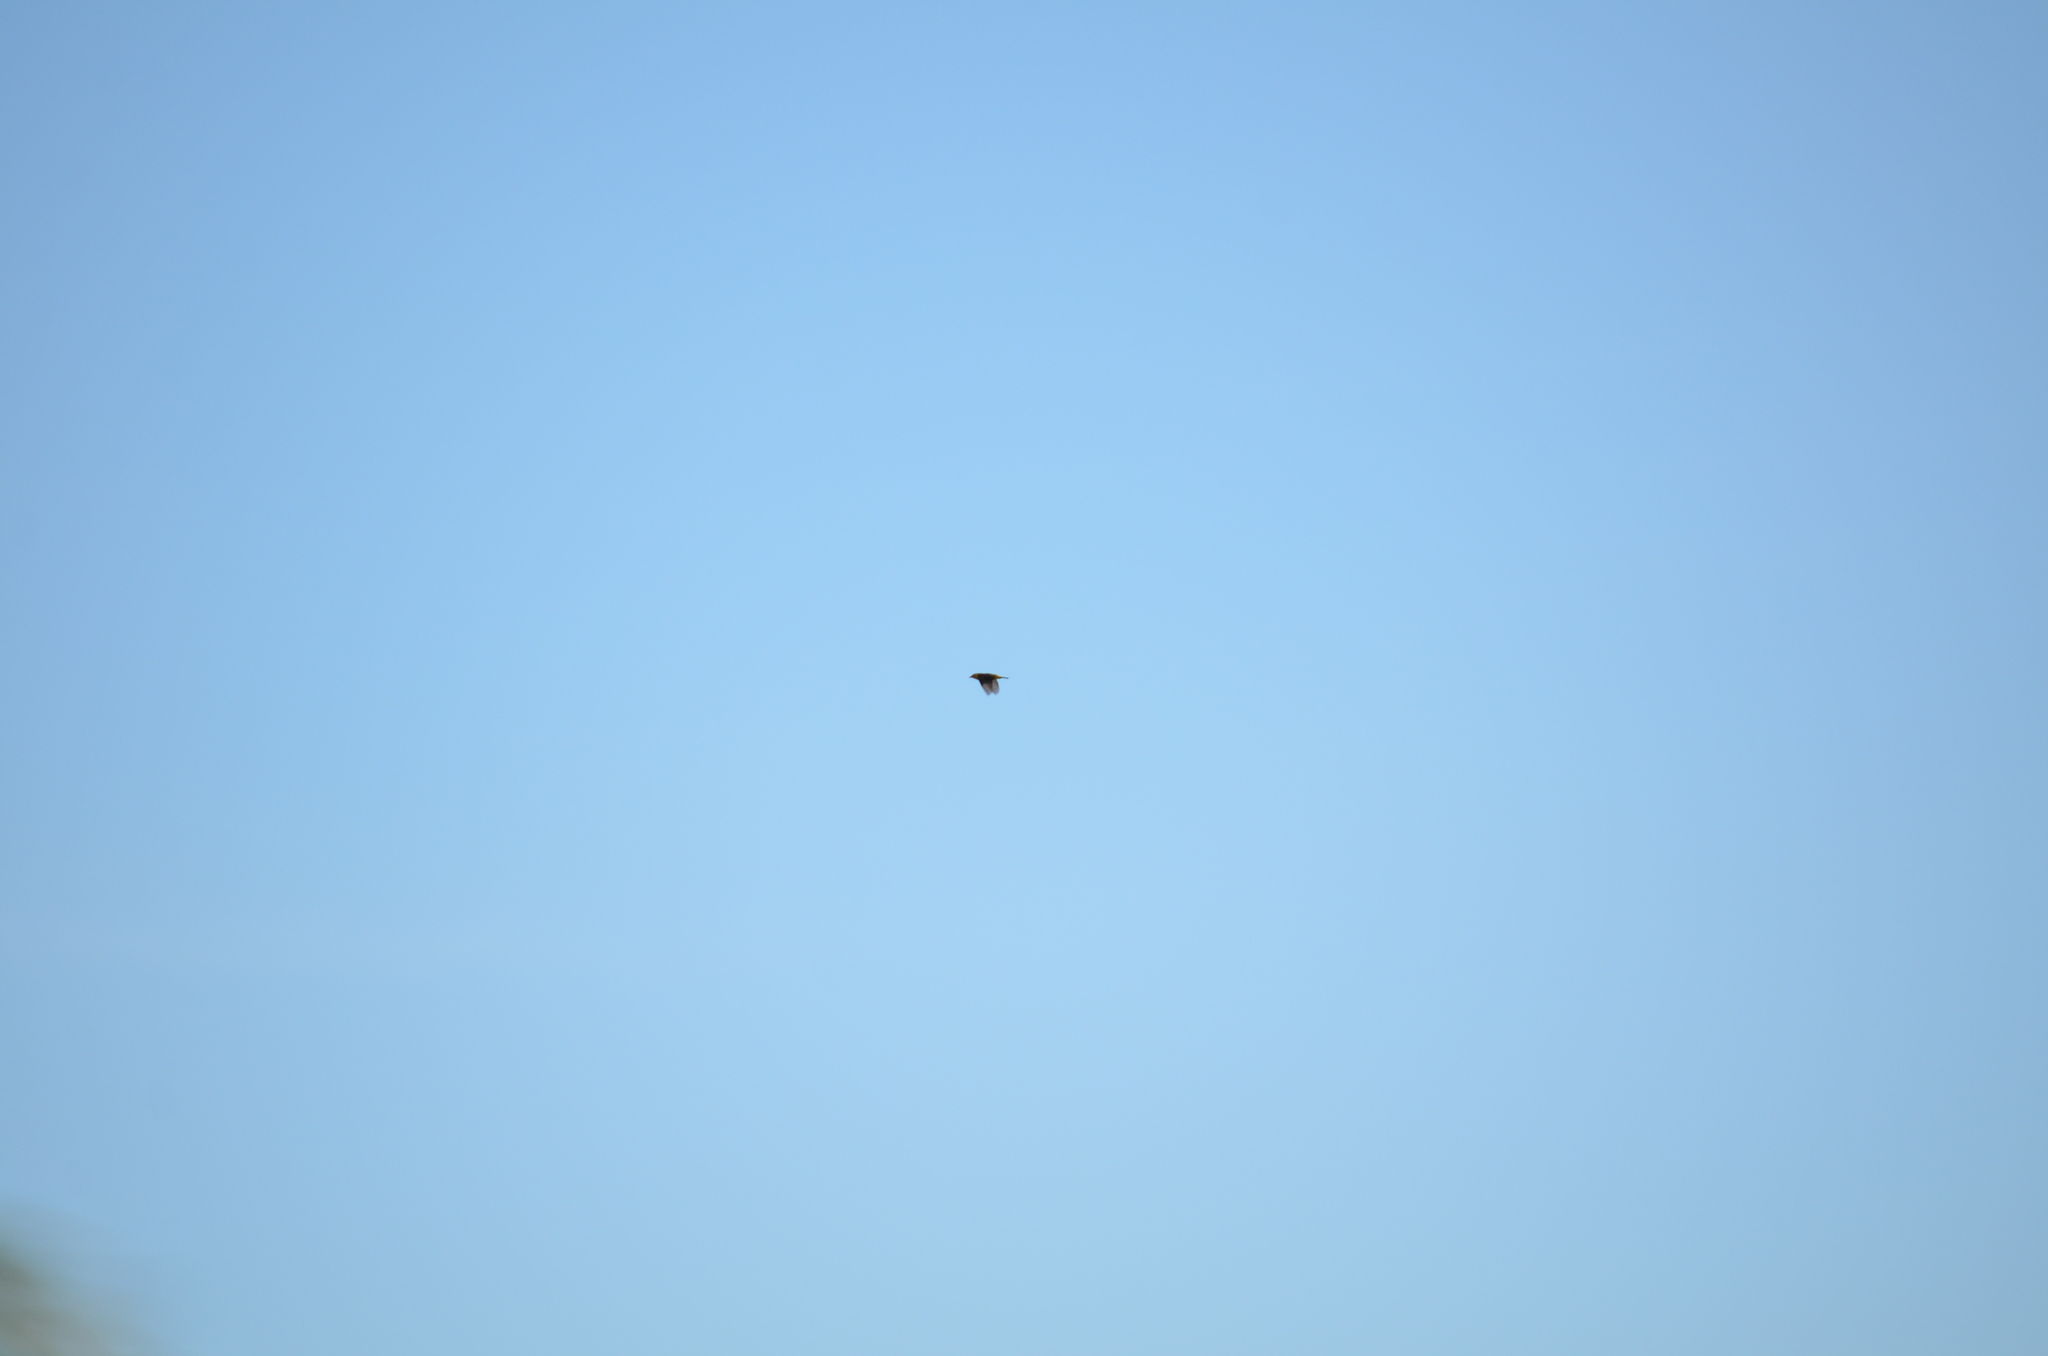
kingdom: Animalia
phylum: Chordata
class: Aves
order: Passeriformes
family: Cardinalidae
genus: Piranga
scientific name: Piranga ludoviciana
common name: Western tanager
